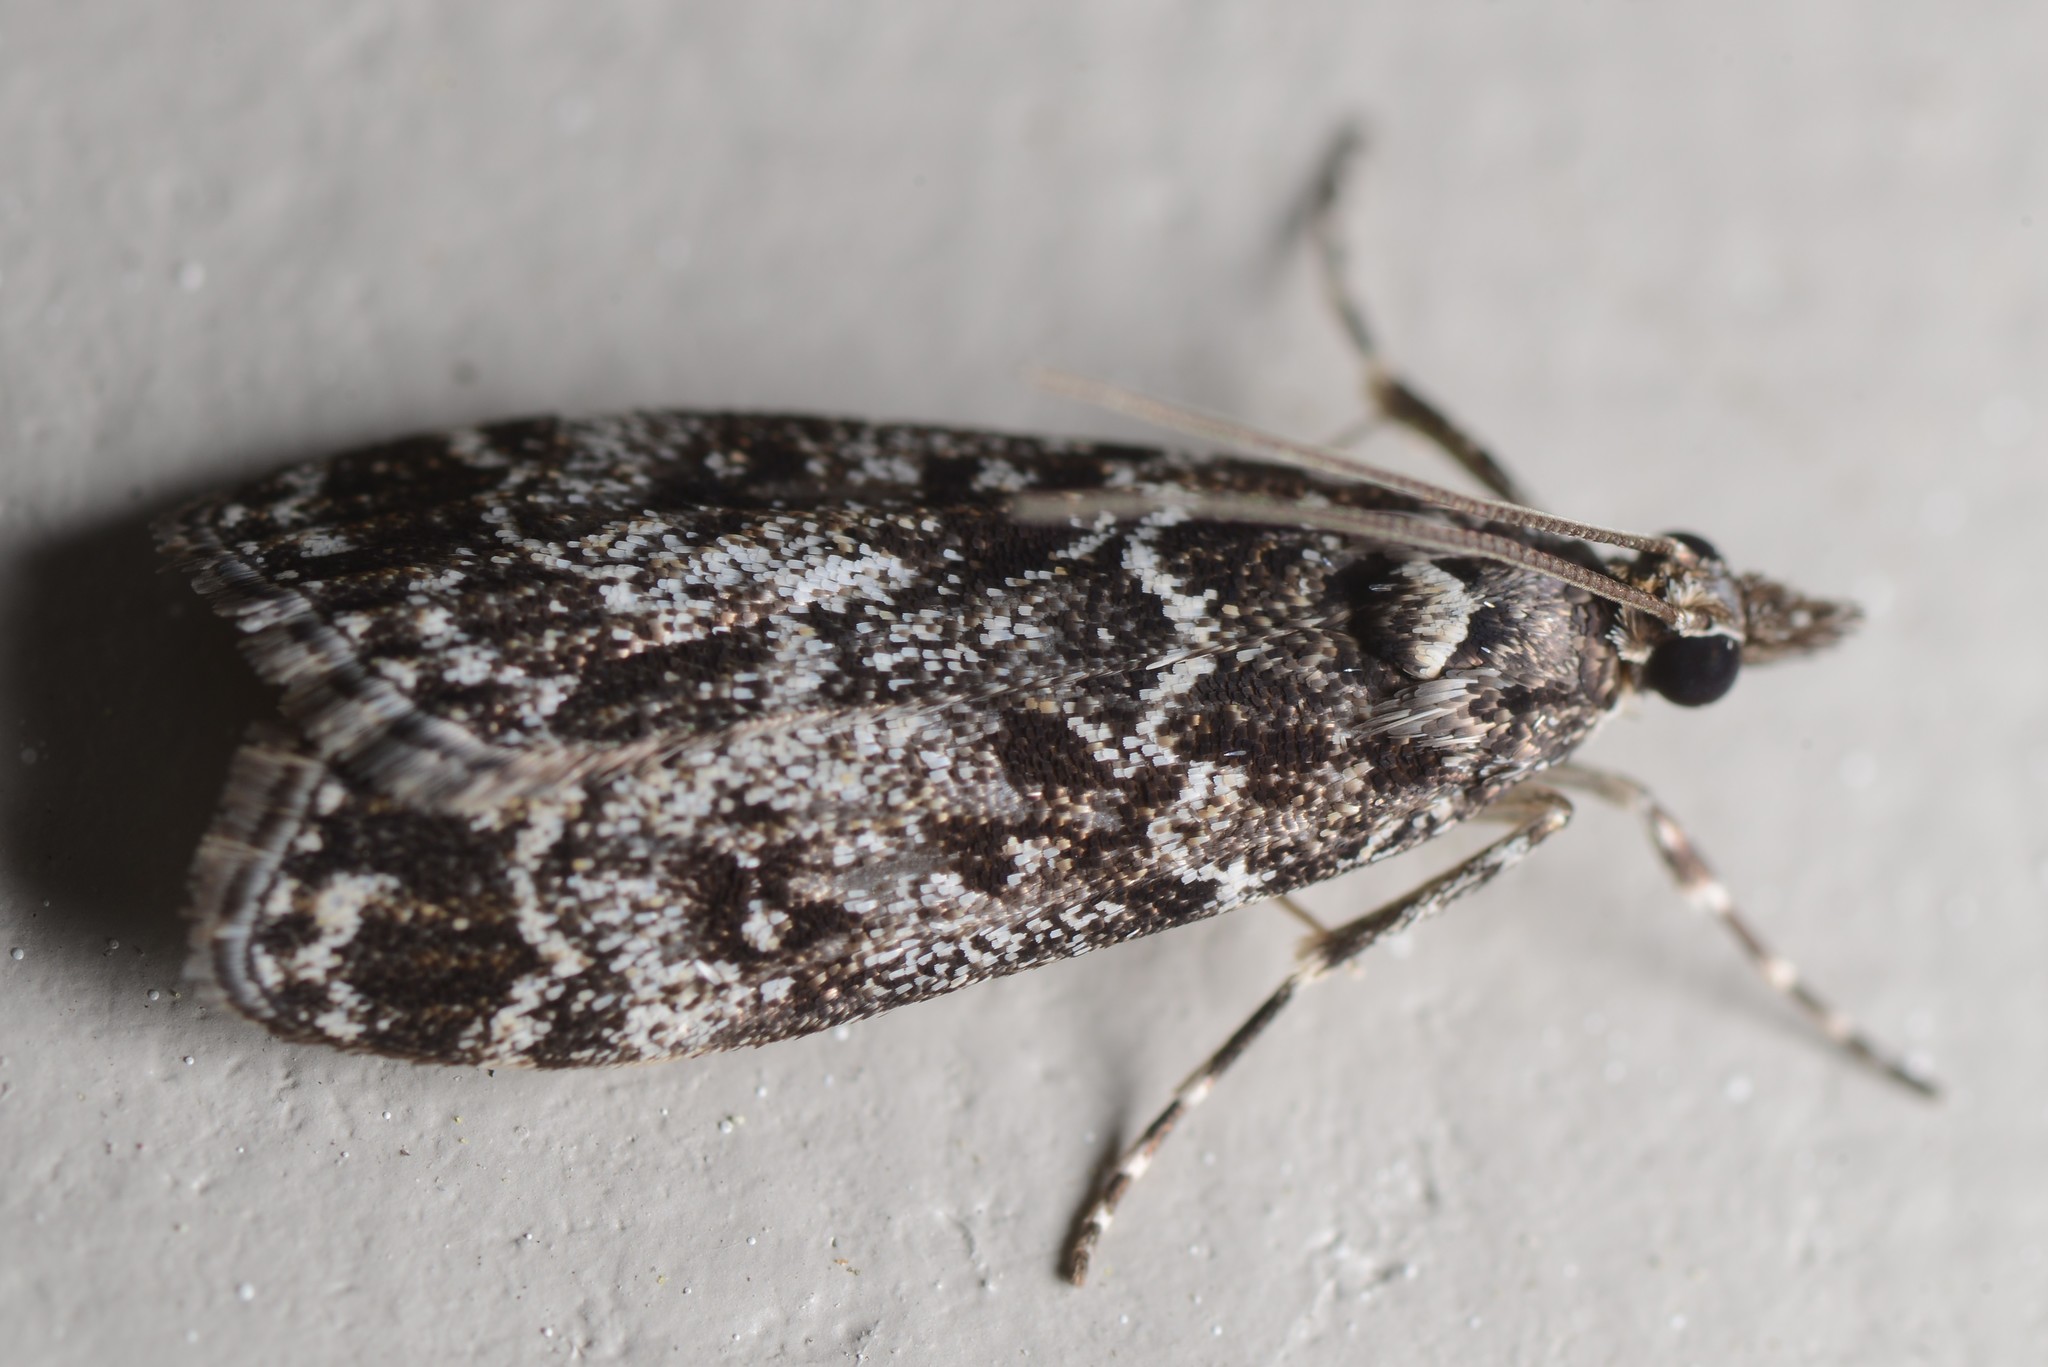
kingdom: Animalia
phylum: Arthropoda
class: Insecta
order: Lepidoptera
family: Crambidae
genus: Eudonia
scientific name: Eudonia philerga
